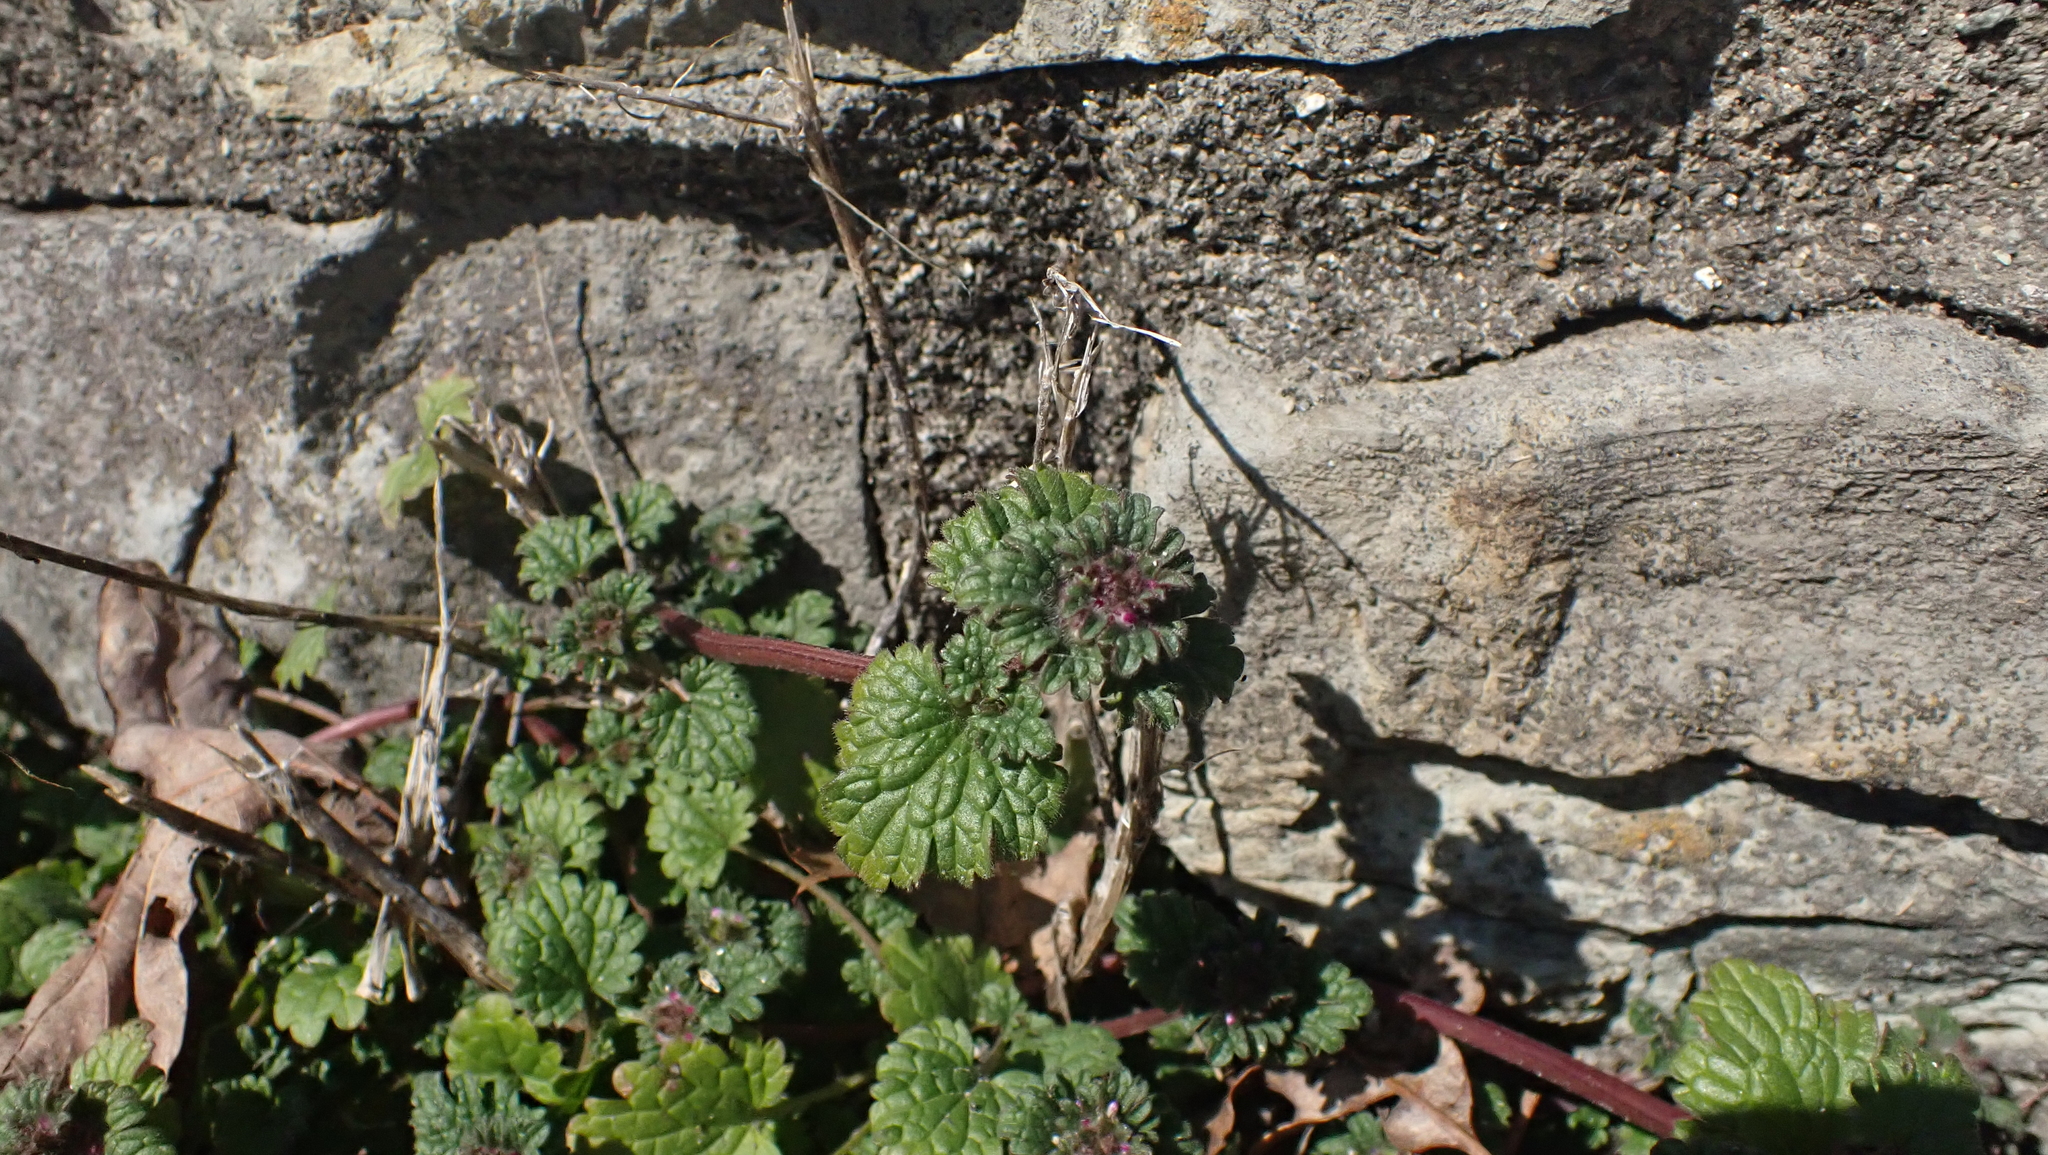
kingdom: Plantae
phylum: Tracheophyta
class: Magnoliopsida
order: Lamiales
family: Lamiaceae
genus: Lamium
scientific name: Lamium amplexicaule
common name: Henbit dead-nettle
